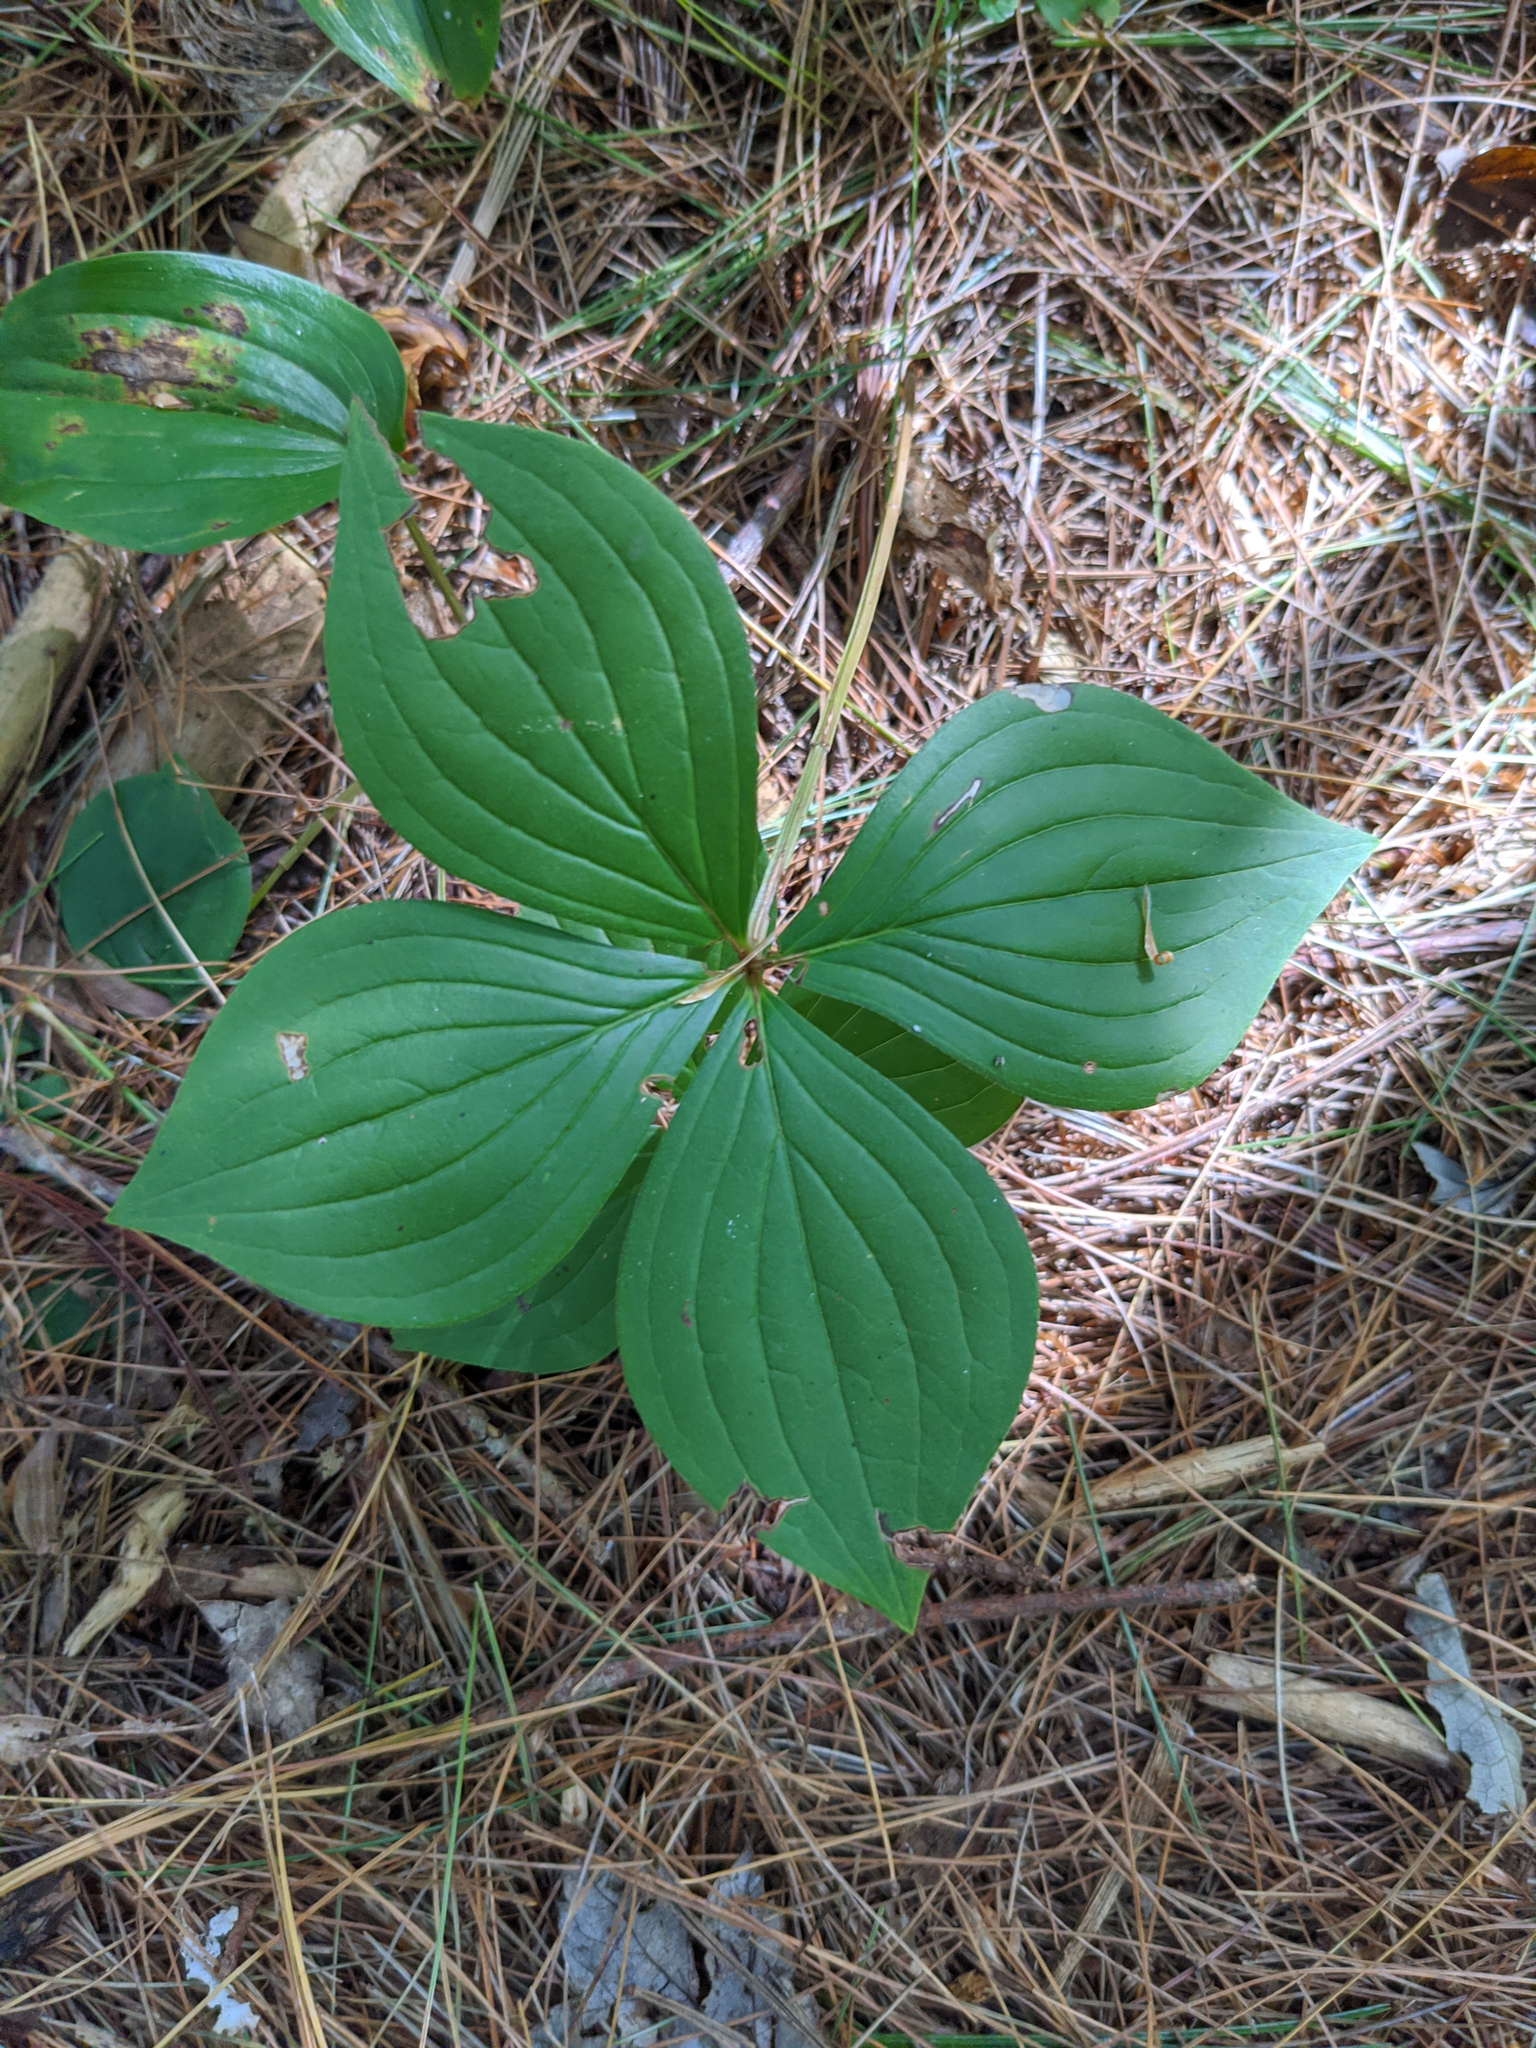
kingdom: Plantae
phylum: Tracheophyta
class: Magnoliopsida
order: Cornales
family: Cornaceae
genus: Cornus
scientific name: Cornus canadensis
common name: Creeping dogwood
